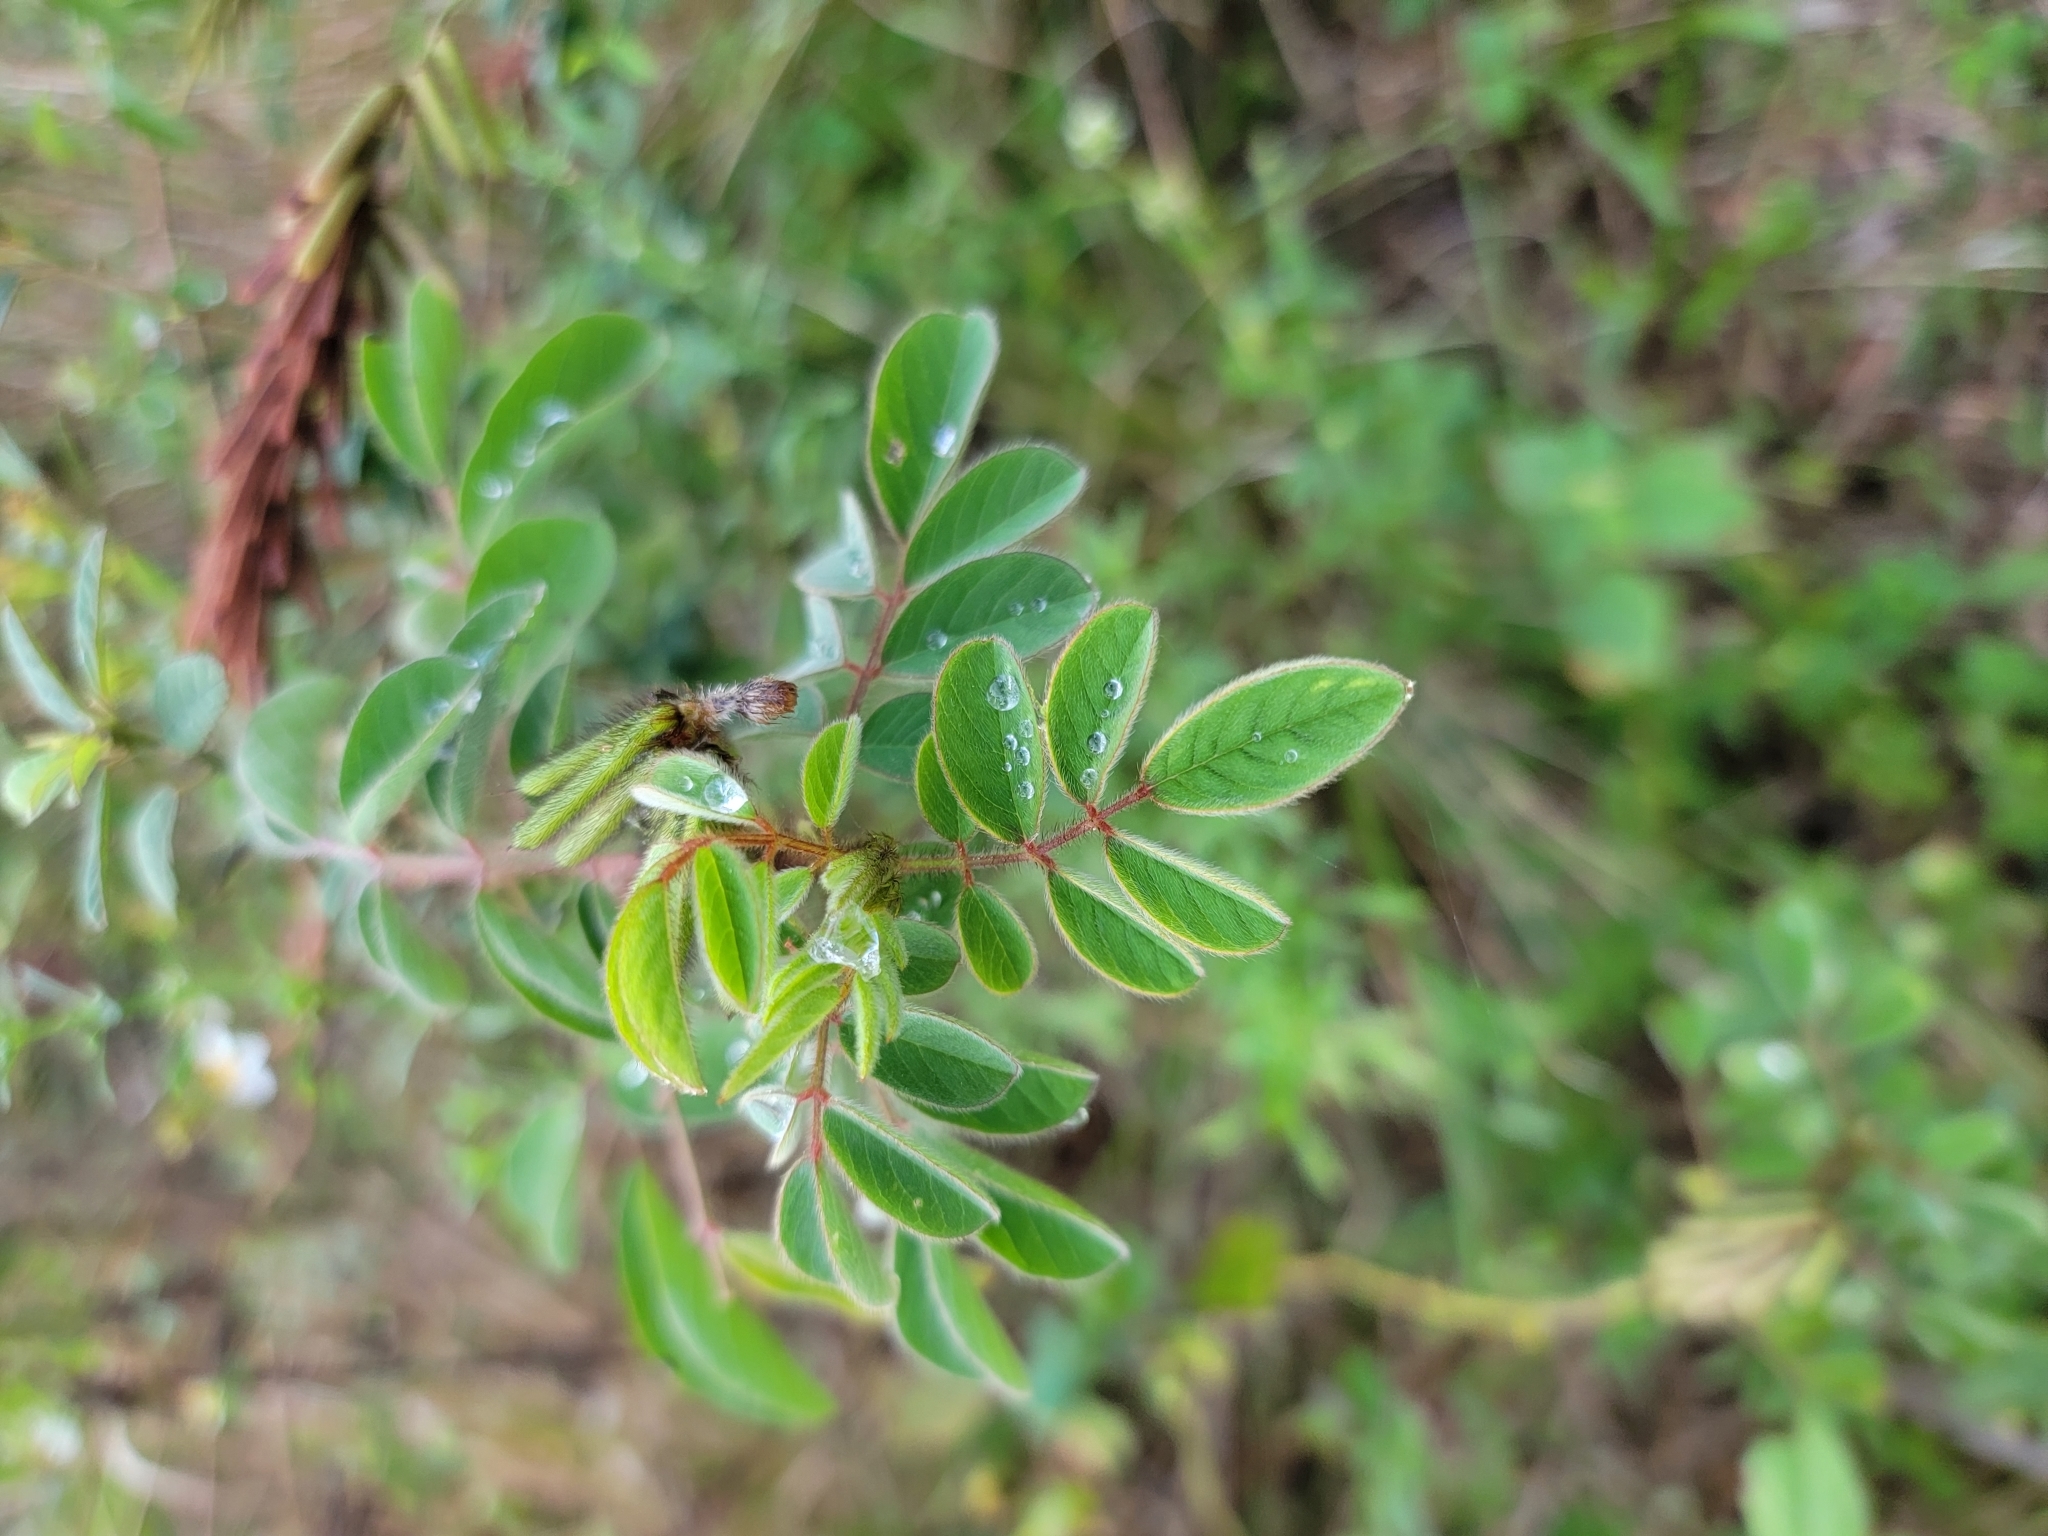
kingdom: Plantae
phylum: Tracheophyta
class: Magnoliopsida
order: Fabales
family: Fabaceae
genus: Indigofera
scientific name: Indigofera hirsuta
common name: Hairy indigo
